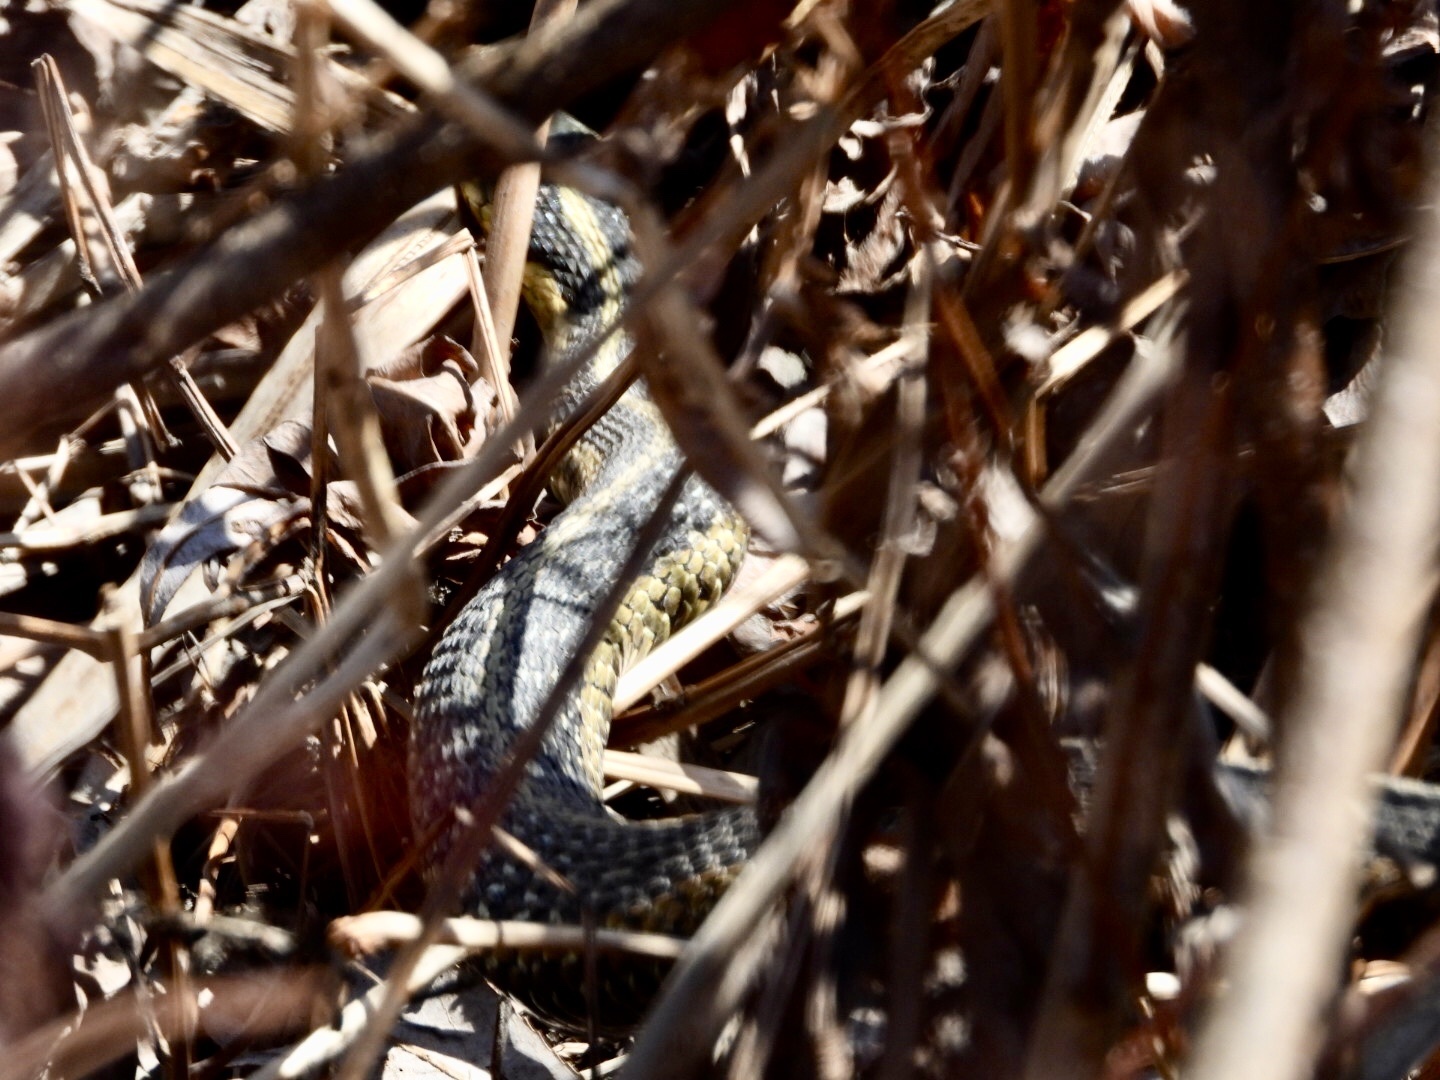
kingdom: Animalia
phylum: Chordata
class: Squamata
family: Colubridae
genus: Thamnophis
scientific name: Thamnophis sirtalis
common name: Common garter snake
